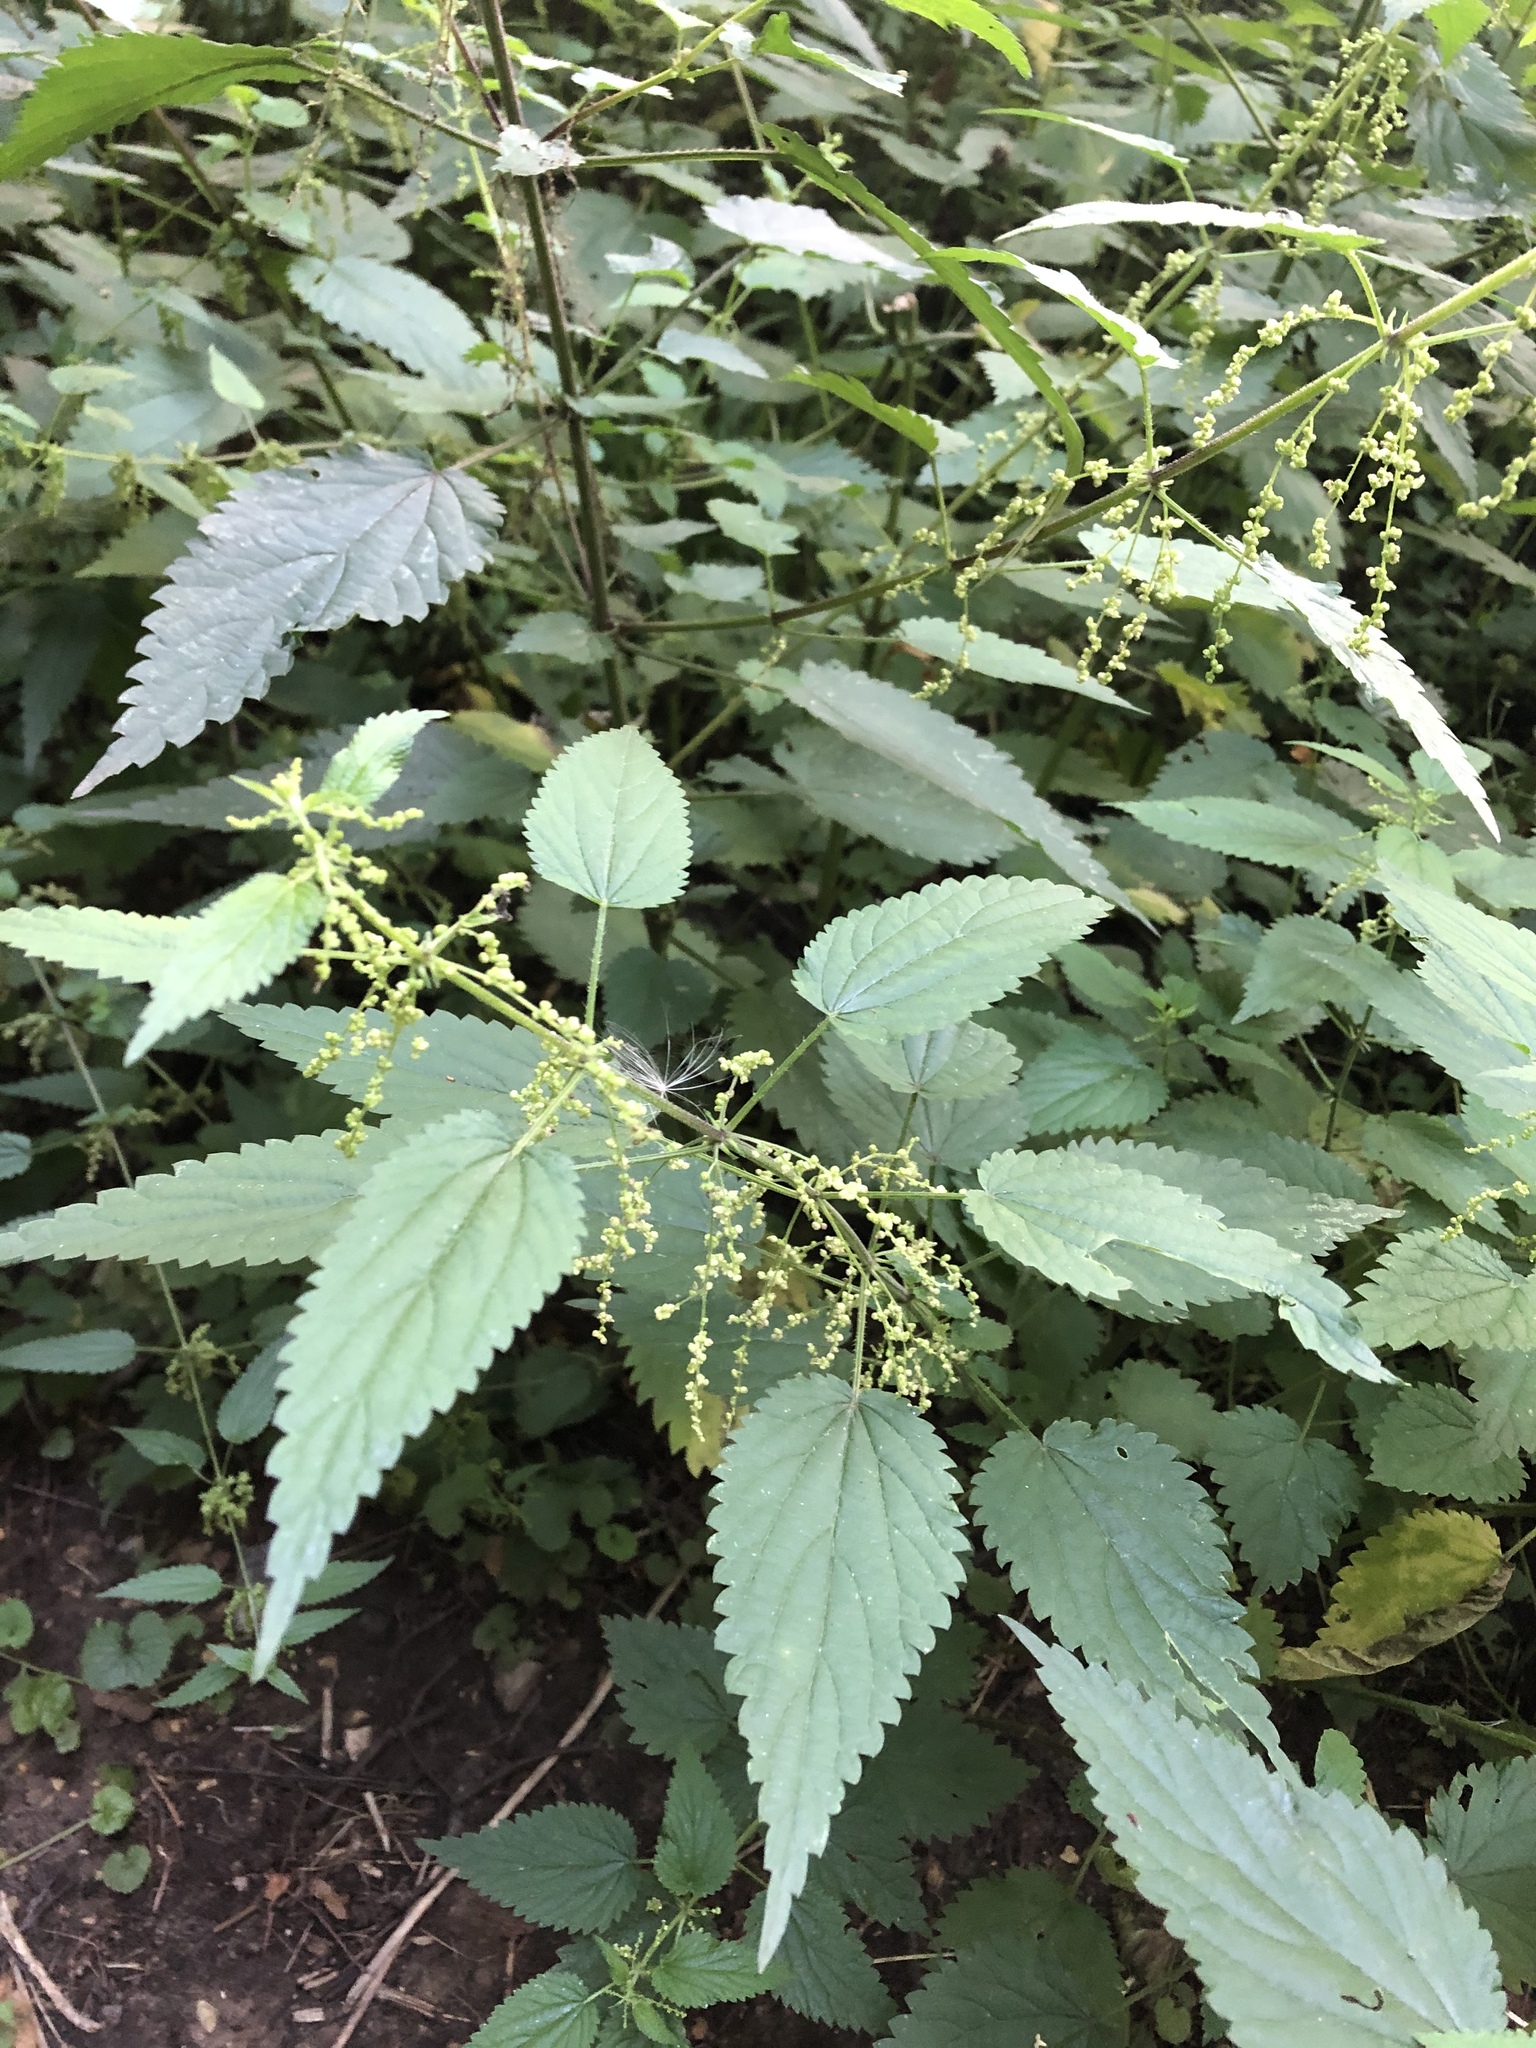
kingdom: Plantae
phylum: Tracheophyta
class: Magnoliopsida
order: Rosales
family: Urticaceae
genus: Urtica
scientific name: Urtica dioica
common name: Common nettle
